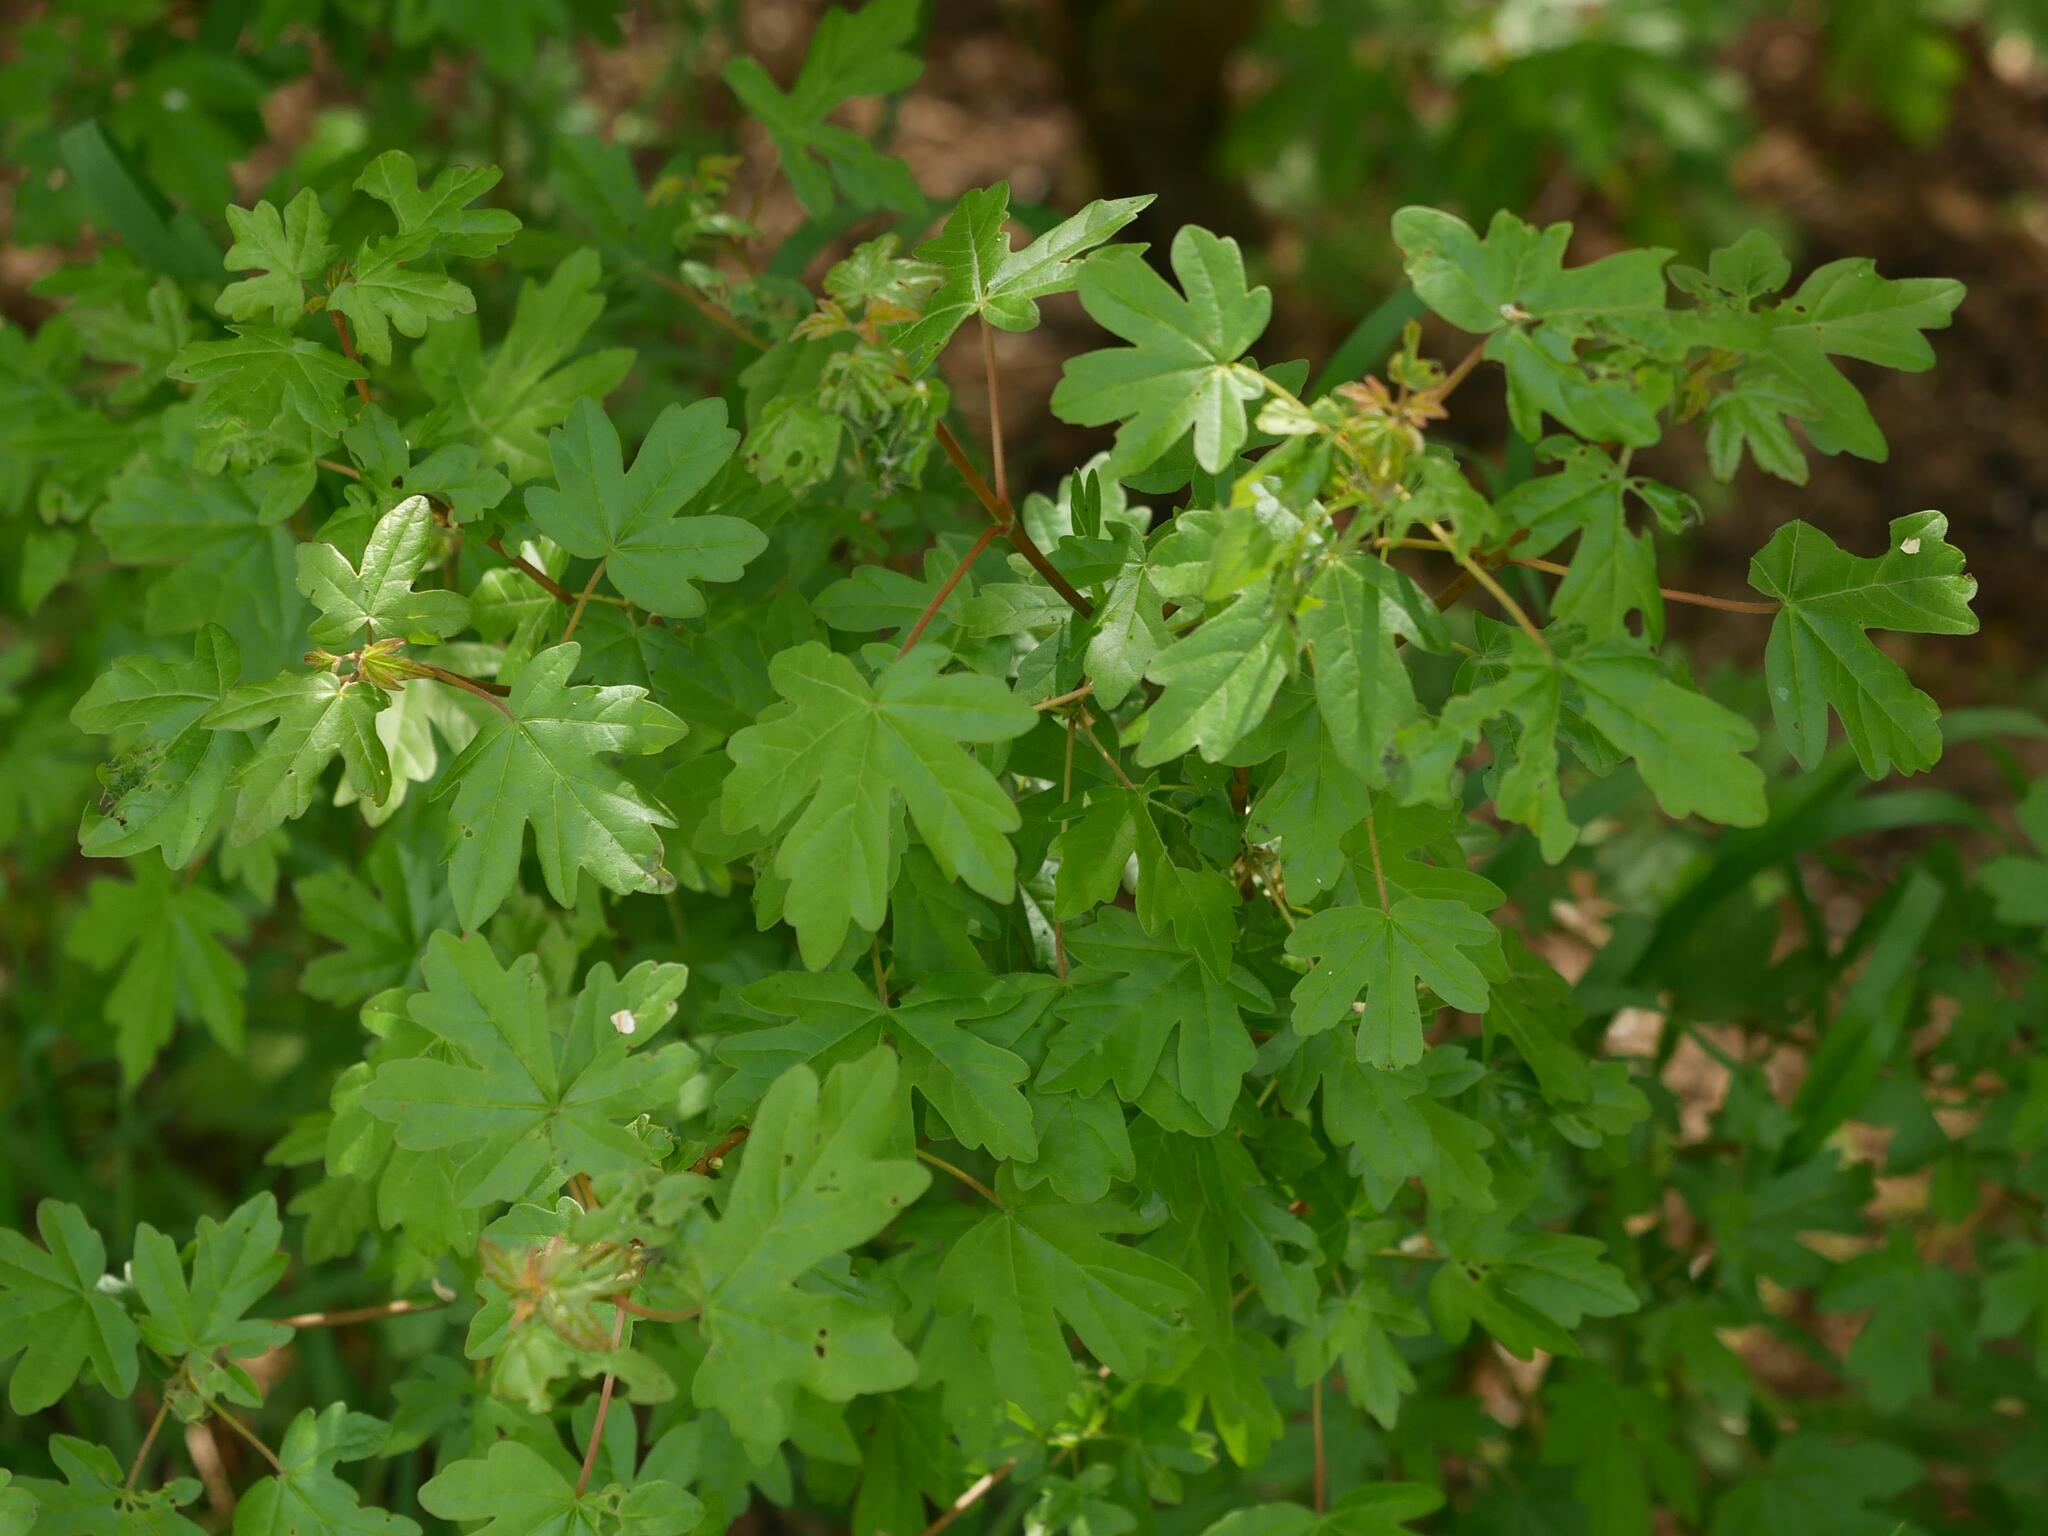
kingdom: Plantae
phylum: Tracheophyta
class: Magnoliopsida
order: Sapindales
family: Sapindaceae
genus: Acer
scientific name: Acer campestre
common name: Field maple
